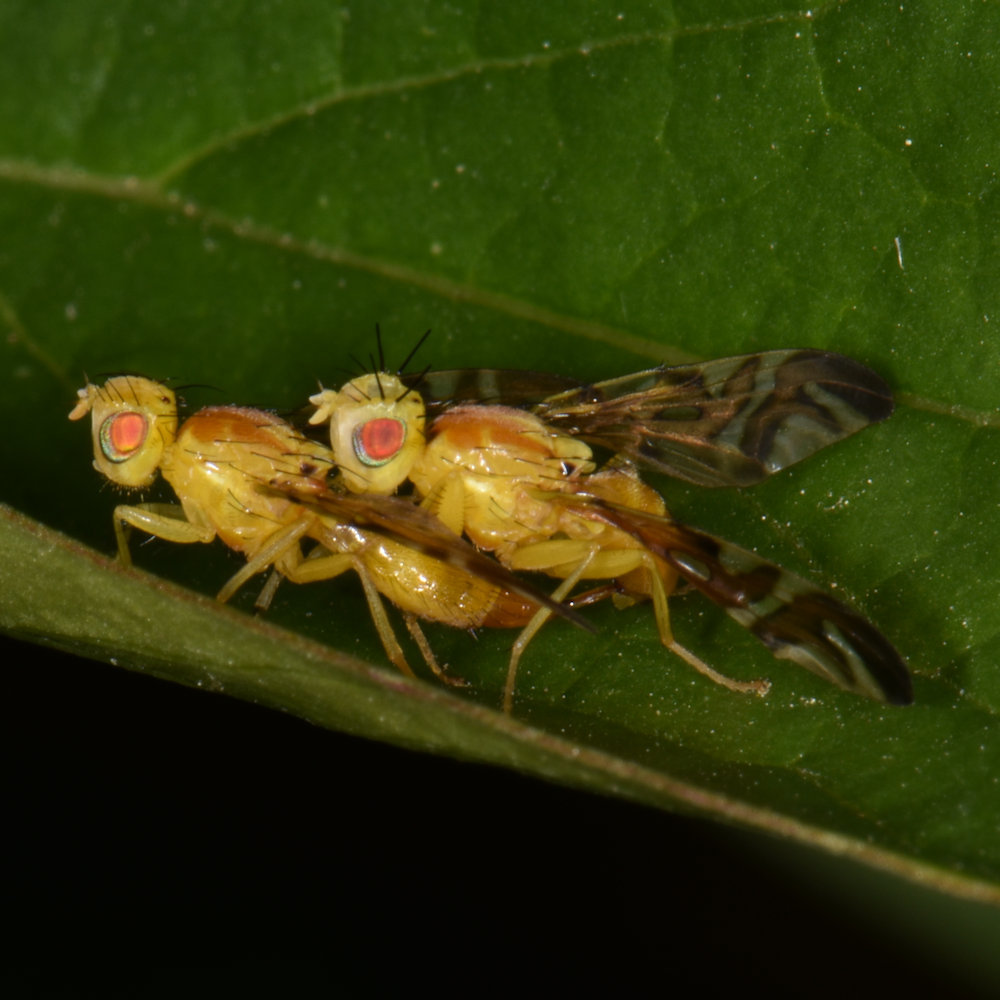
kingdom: Animalia
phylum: Arthropoda
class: Insecta
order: Diptera
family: Tephritidae
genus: Strauzia
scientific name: Strauzia longipennis
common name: Sunflower maggot
